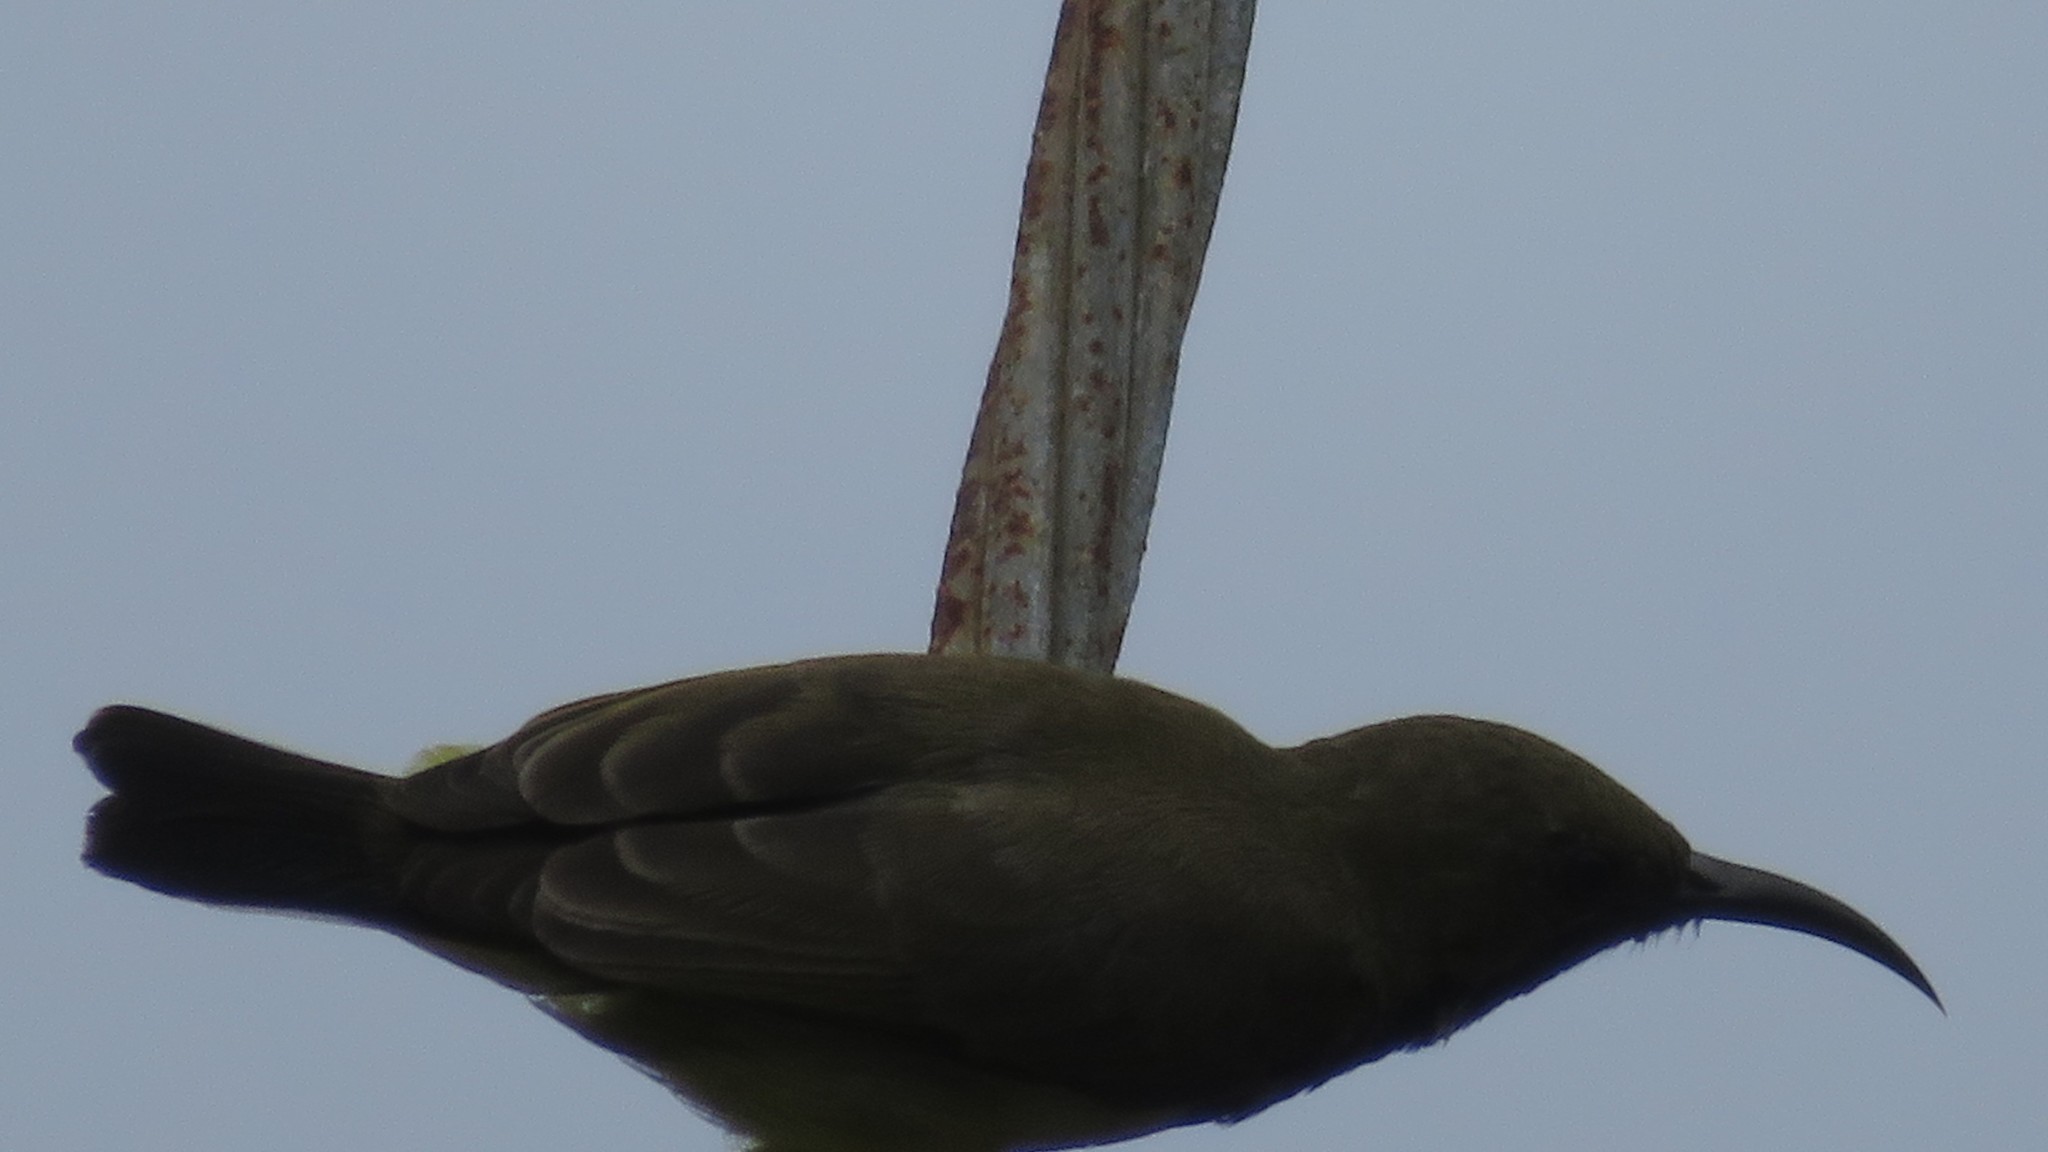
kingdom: Animalia
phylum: Chordata
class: Aves
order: Passeriformes
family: Nectariniidae
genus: Cinnyris
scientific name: Cinnyris
